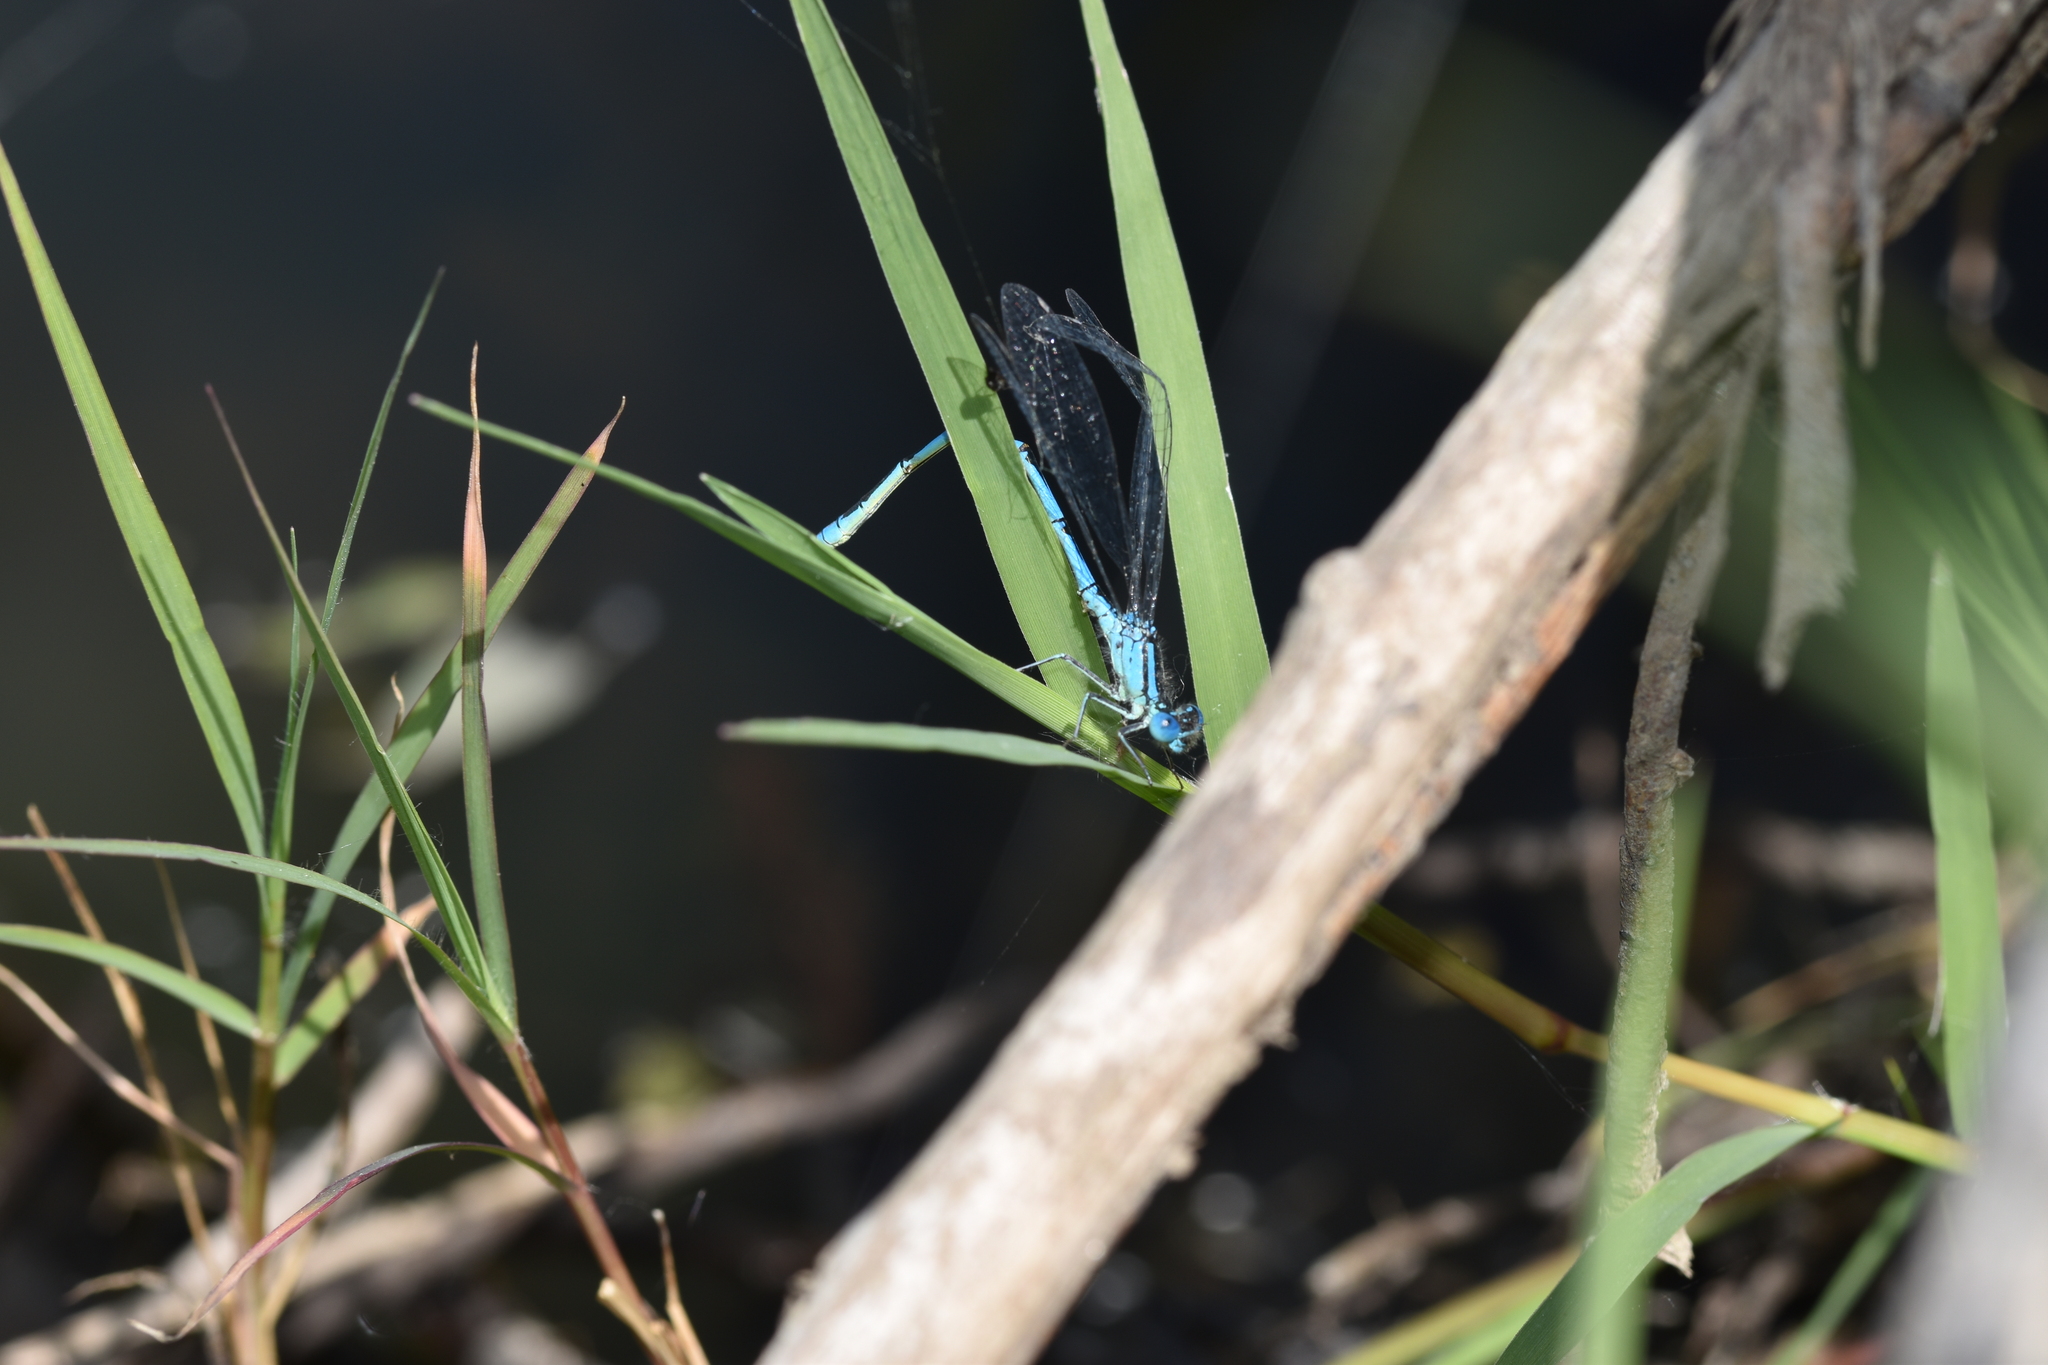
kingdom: Animalia
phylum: Arthropoda
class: Insecta
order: Odonata
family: Coenagrionidae
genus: Erythromma
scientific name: Erythromma lindenii
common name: Blue-eye
